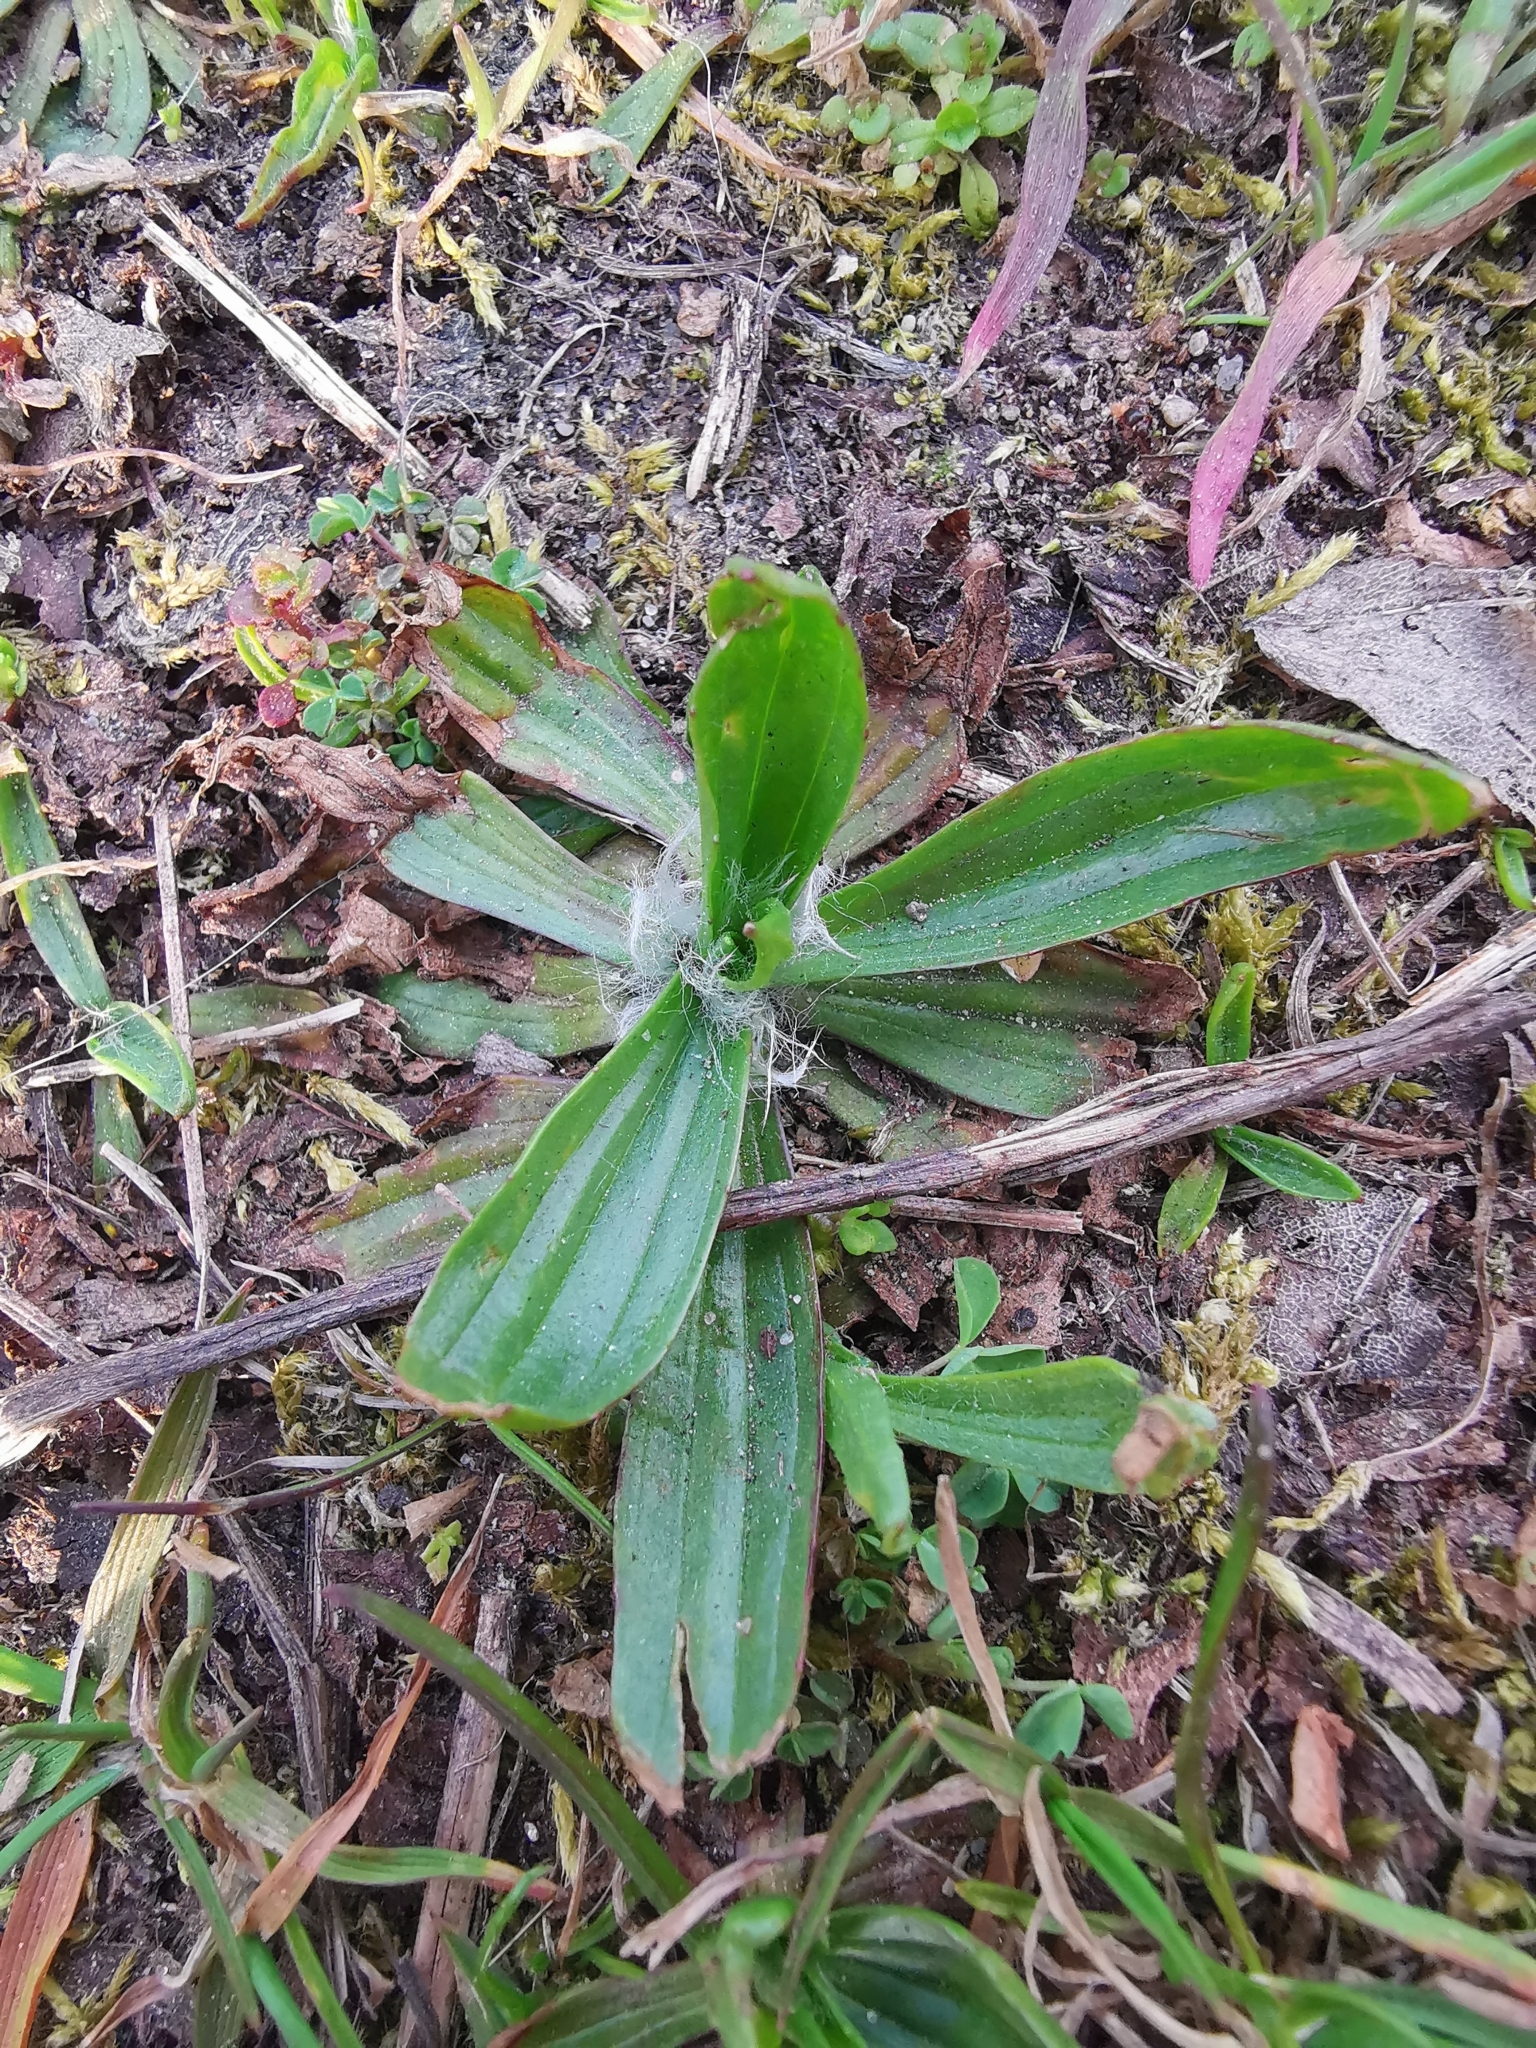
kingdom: Plantae
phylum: Tracheophyta
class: Magnoliopsida
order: Lamiales
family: Plantaginaceae
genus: Plantago
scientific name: Plantago lanceolata
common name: Ribwort plantain
